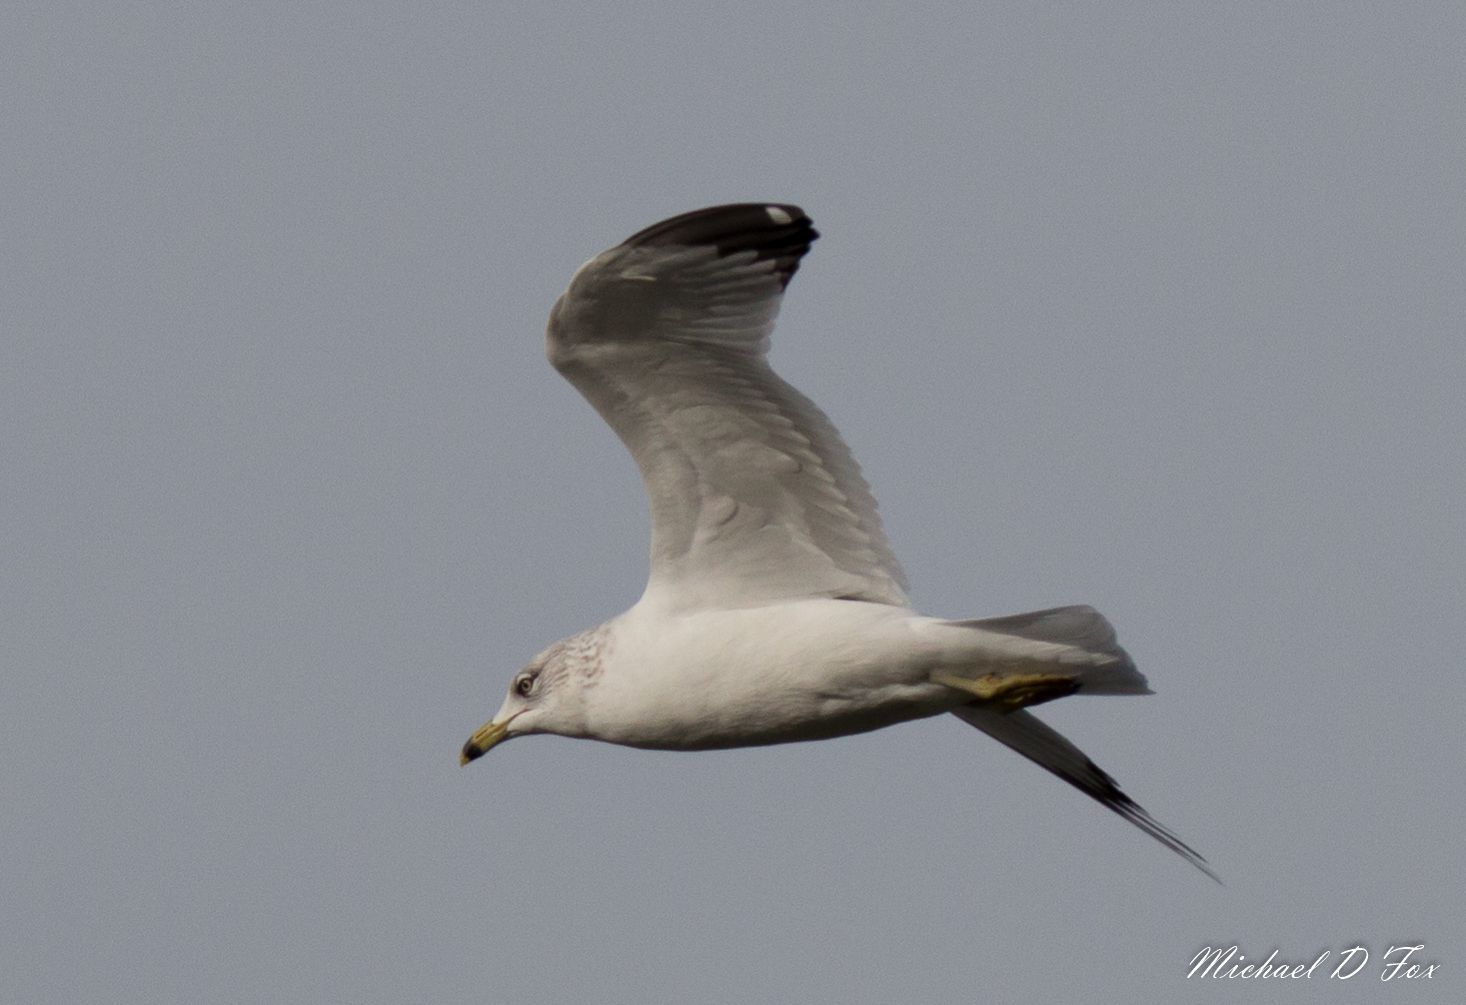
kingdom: Animalia
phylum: Chordata
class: Aves
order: Charadriiformes
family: Laridae
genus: Larus
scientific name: Larus delawarensis
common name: Ring-billed gull
